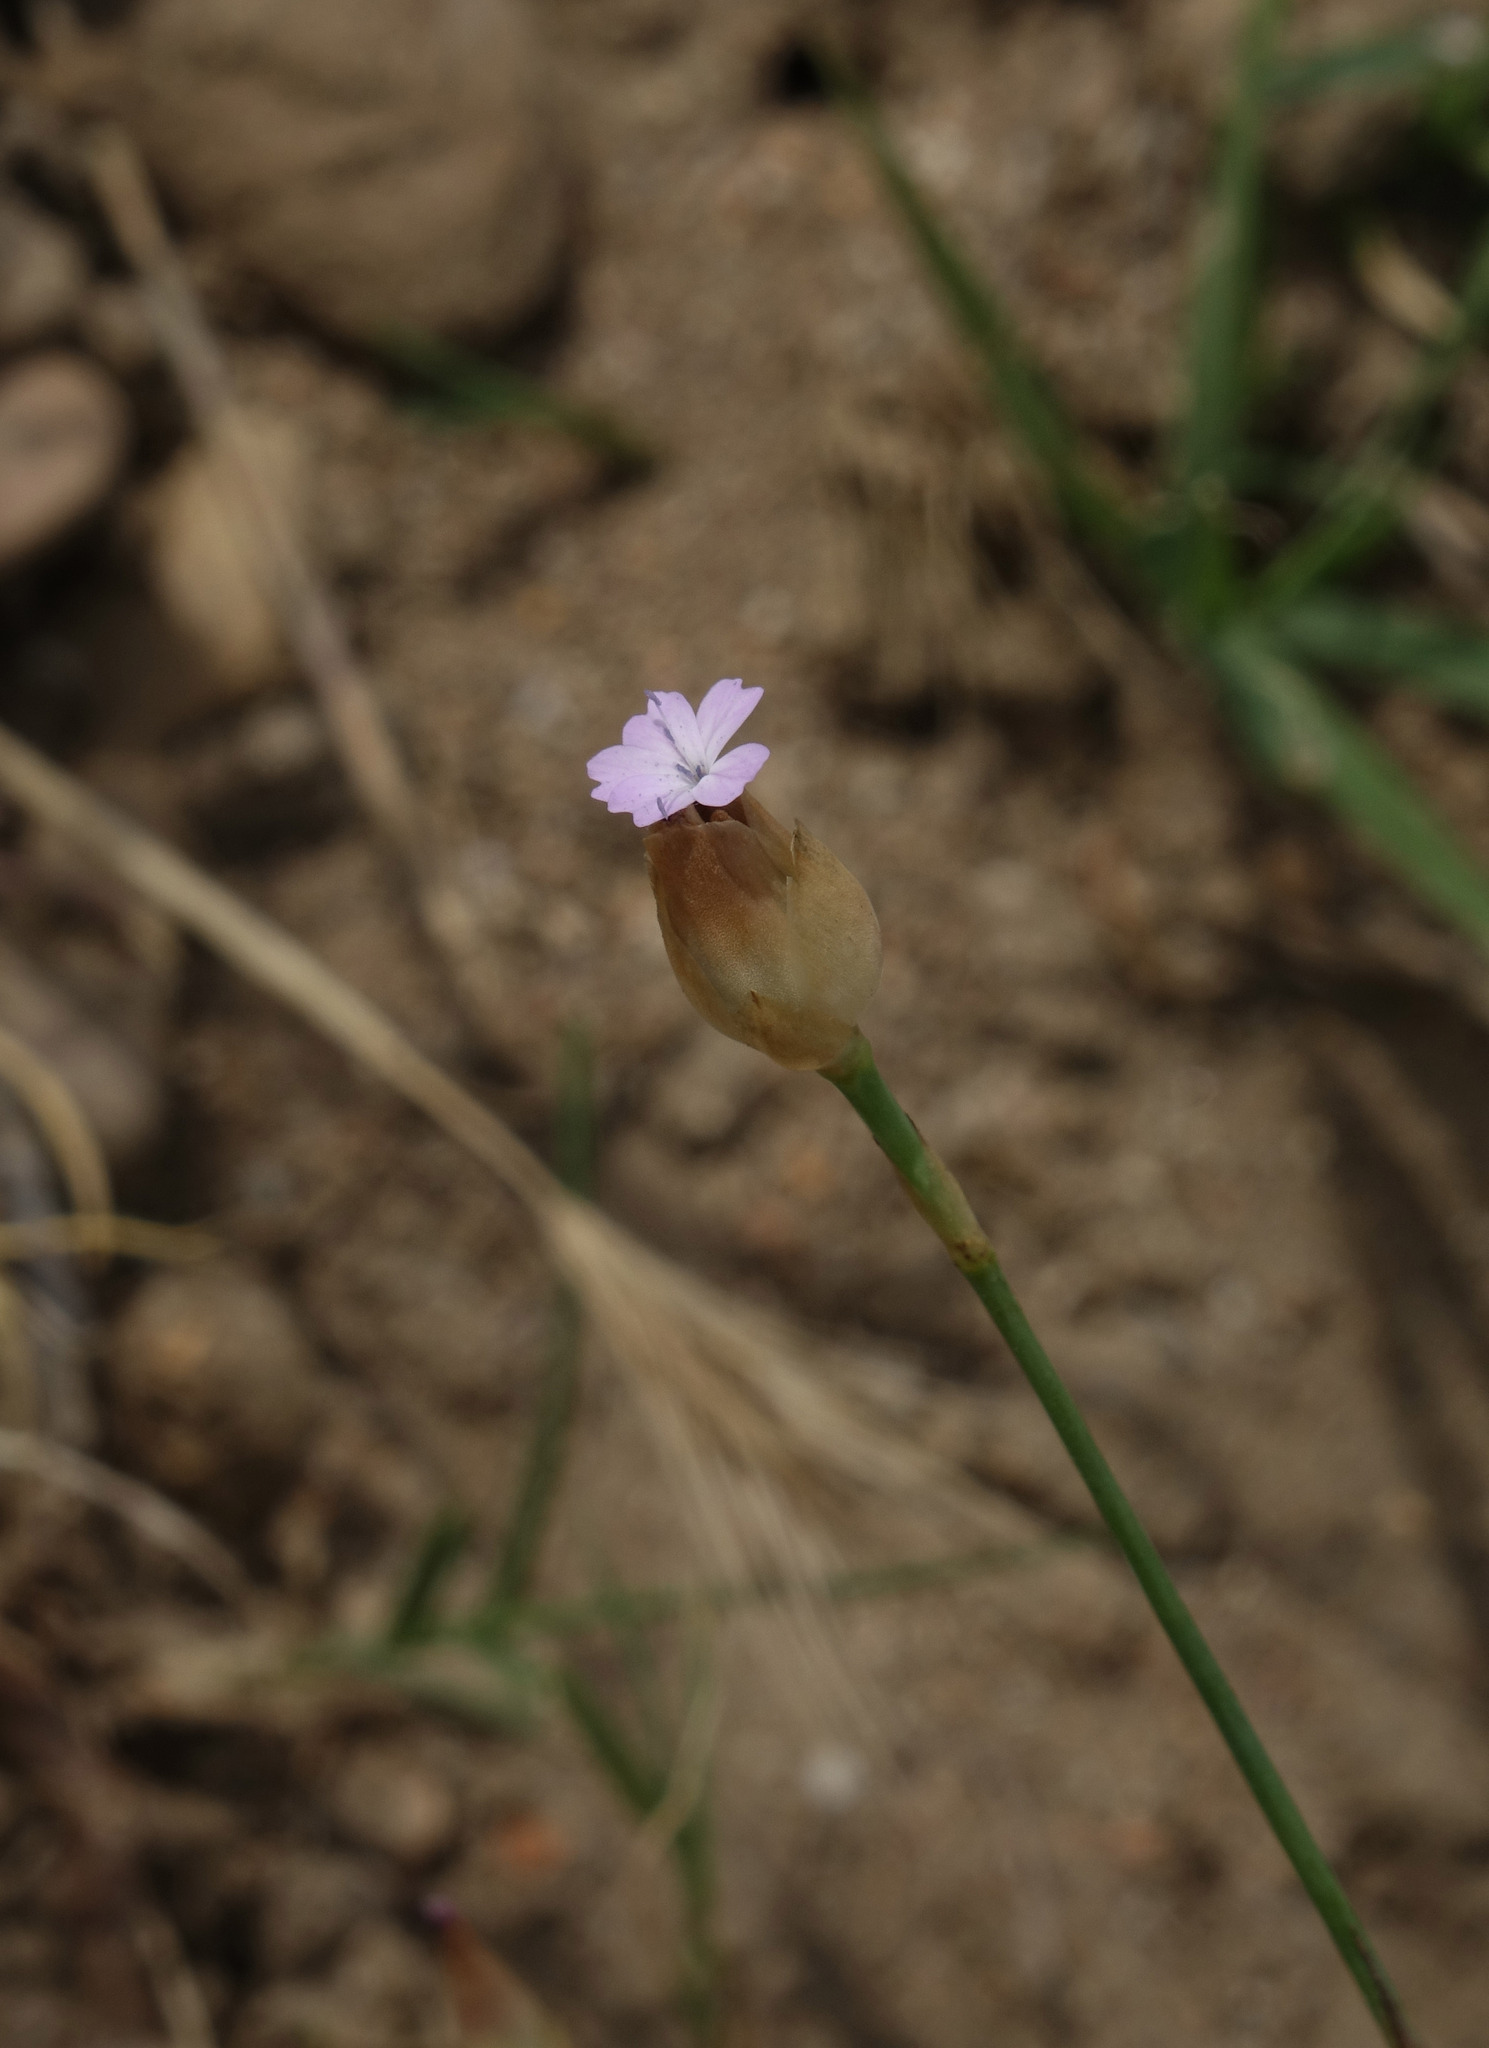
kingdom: Plantae
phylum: Tracheophyta
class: Magnoliopsida
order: Caryophyllales
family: Caryophyllaceae
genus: Petrorhagia
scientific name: Petrorhagia prolifera
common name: Proliferous pink
